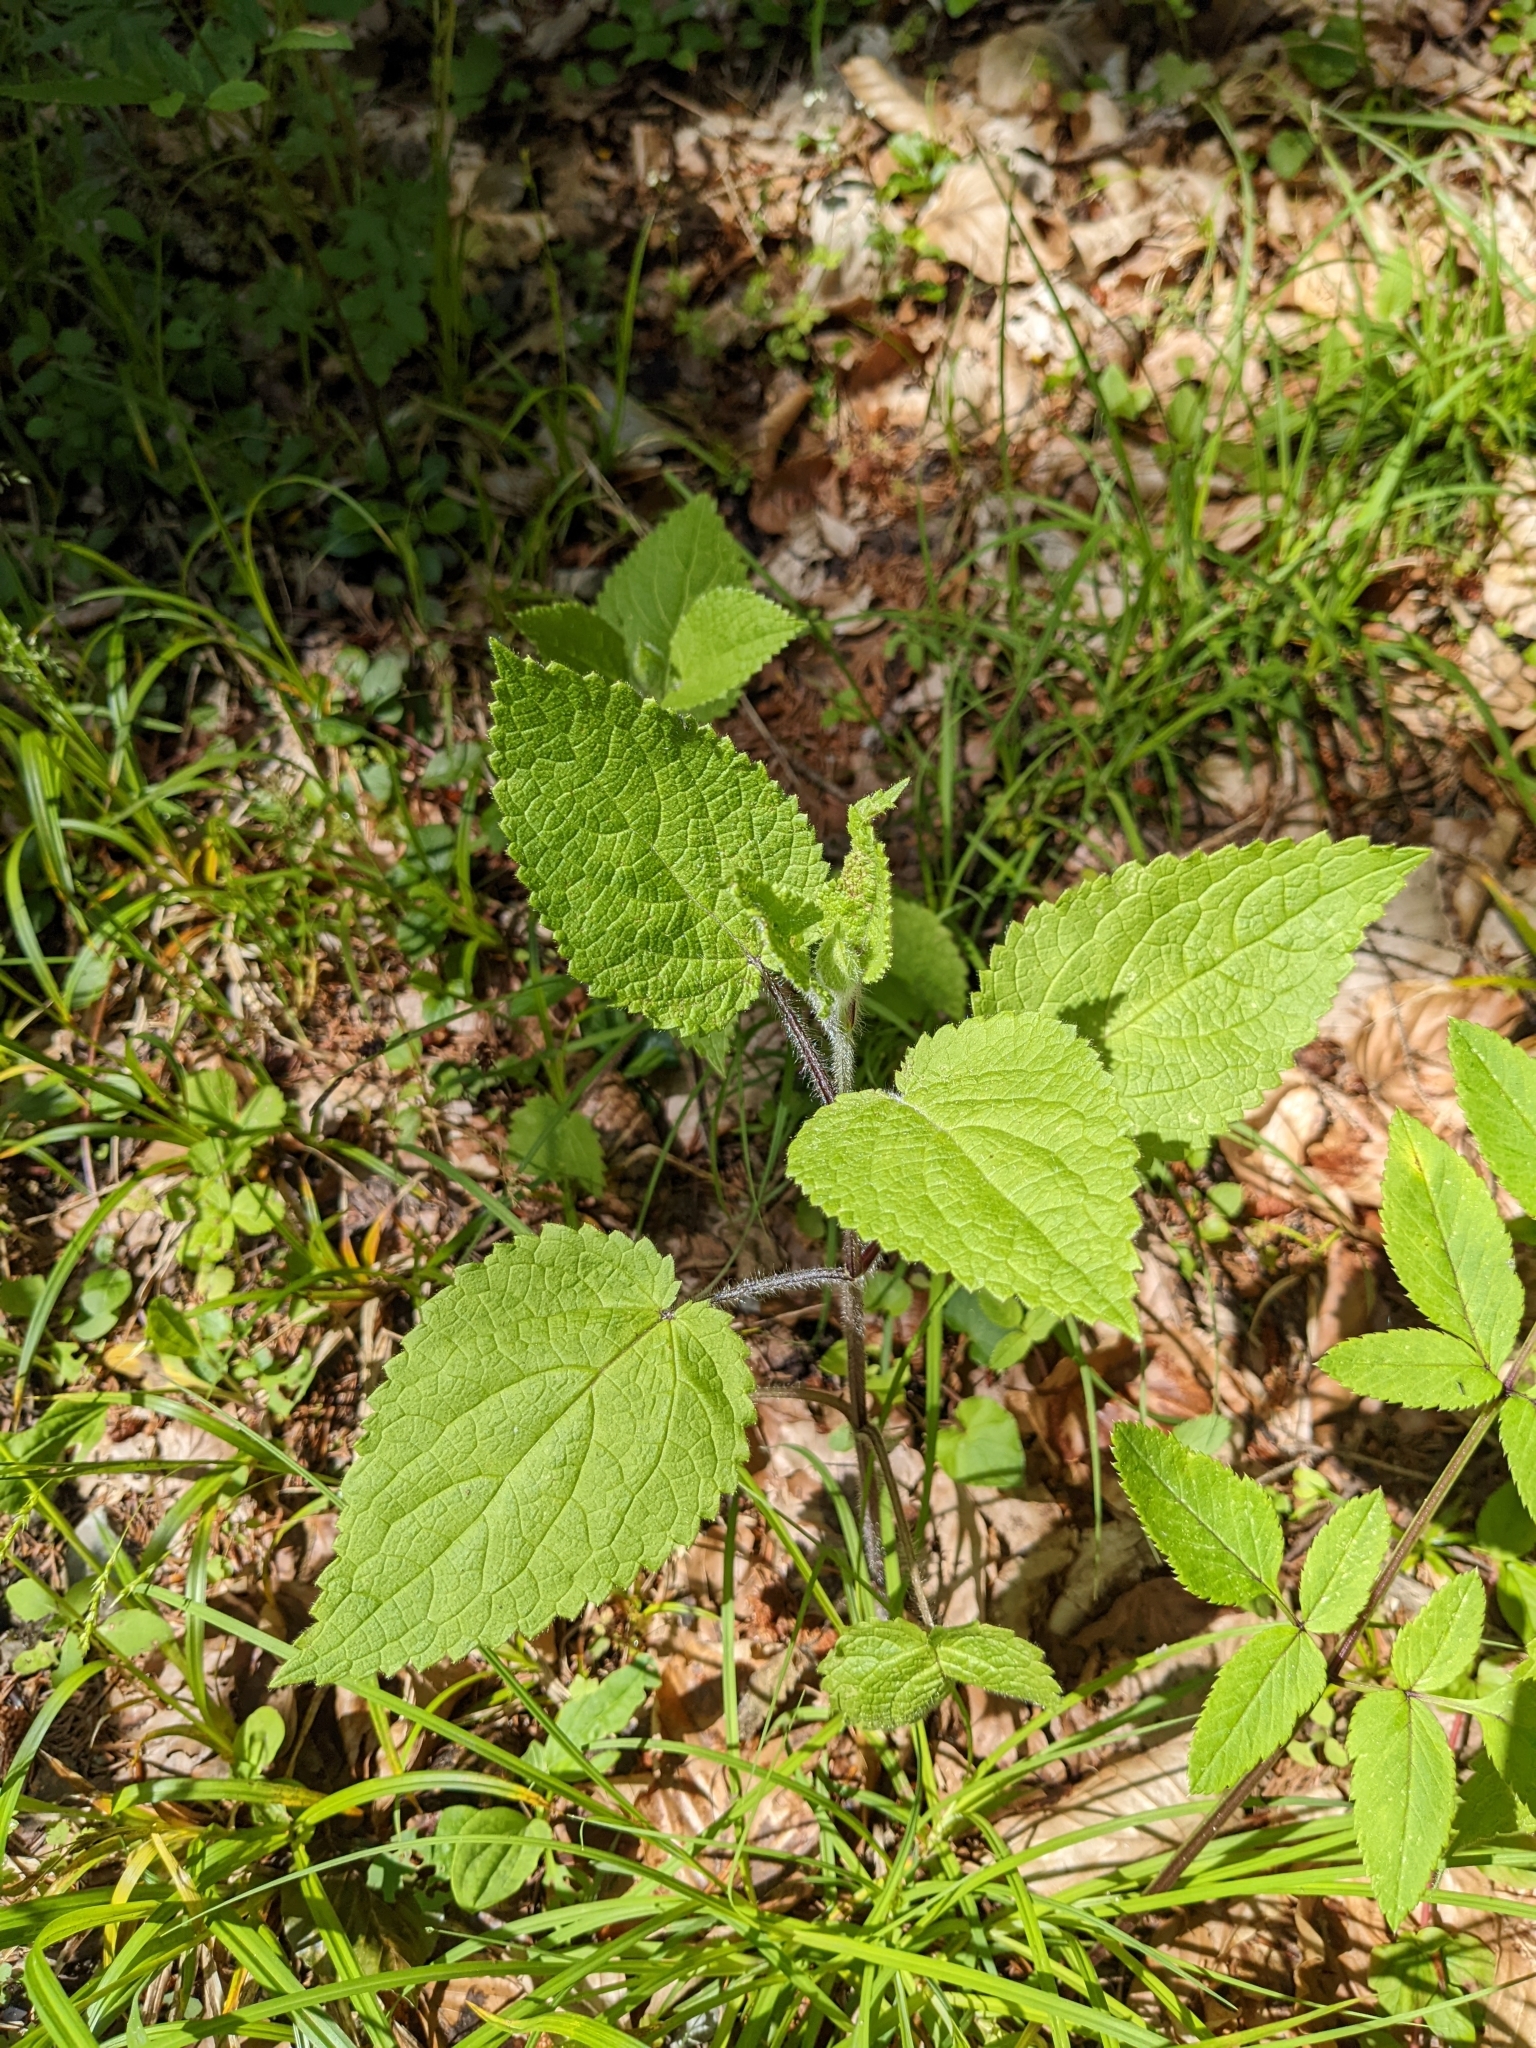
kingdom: Plantae
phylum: Tracheophyta
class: Magnoliopsida
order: Lamiales
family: Lamiaceae
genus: Stachys
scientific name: Stachys sylvatica
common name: Hedge woundwort
